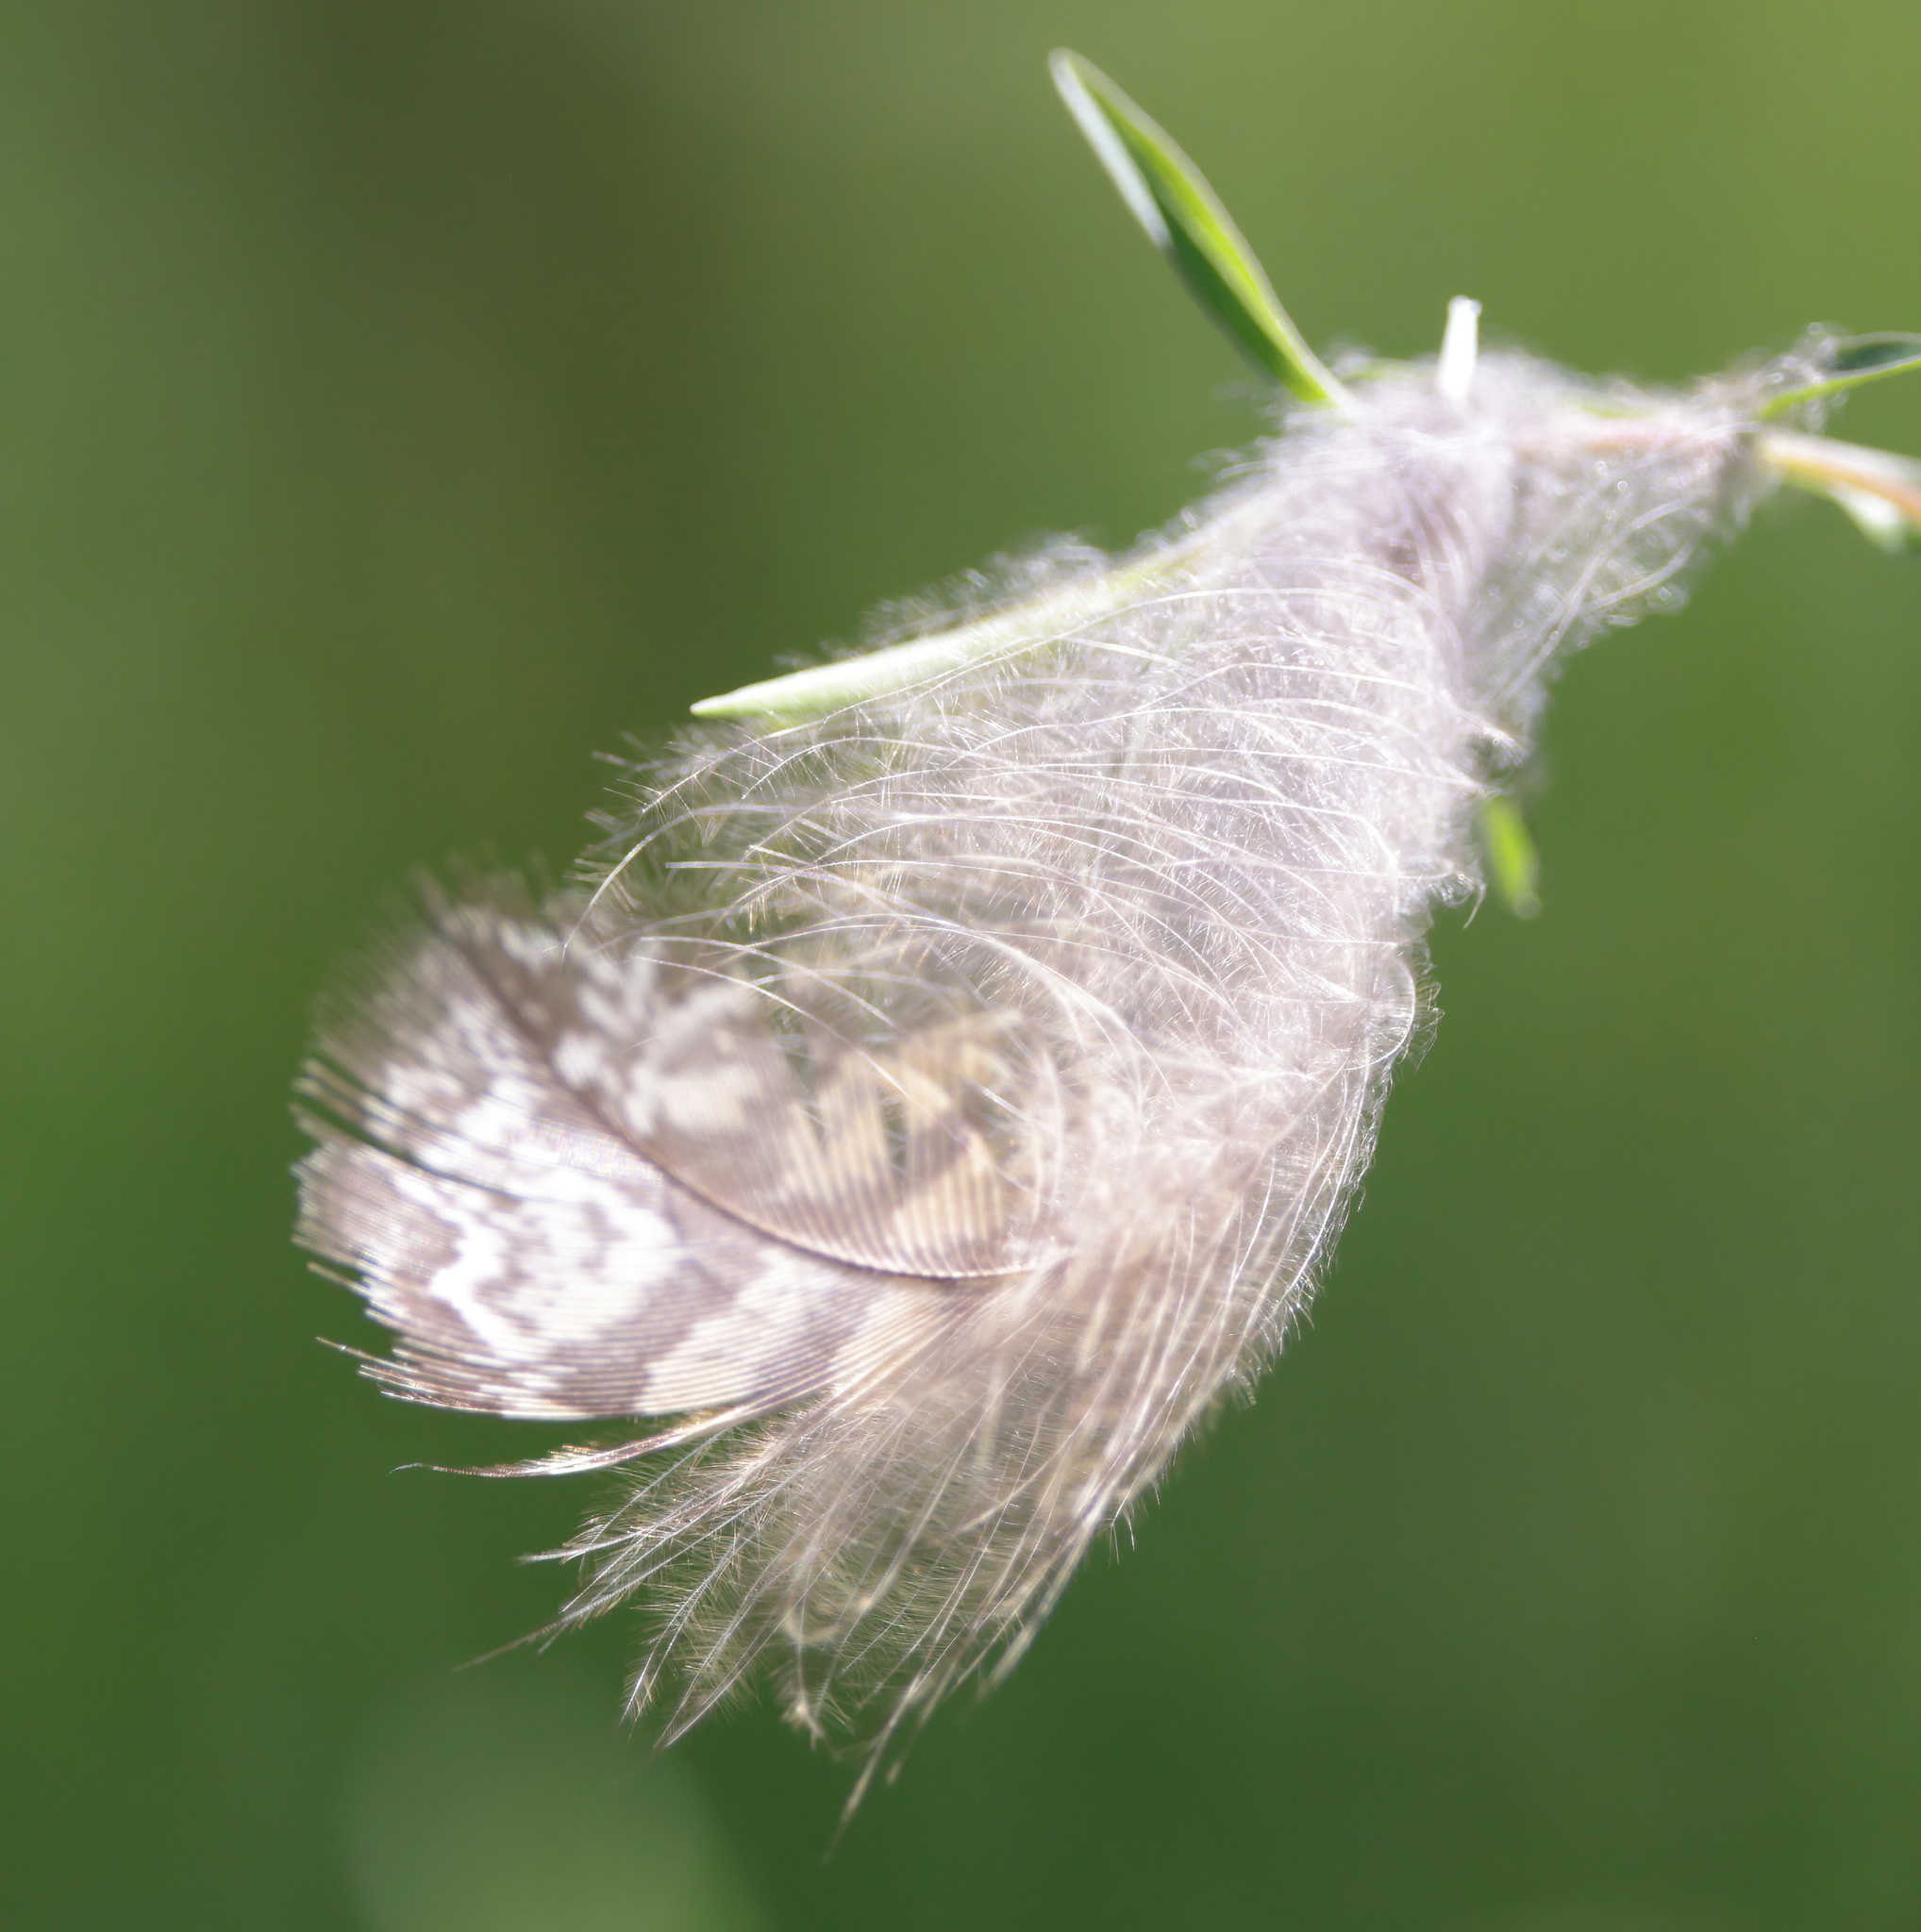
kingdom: Animalia
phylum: Chordata
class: Aves
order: Strigiformes
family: Strigidae
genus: Bubo
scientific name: Bubo virginianus
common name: Great horned owl
